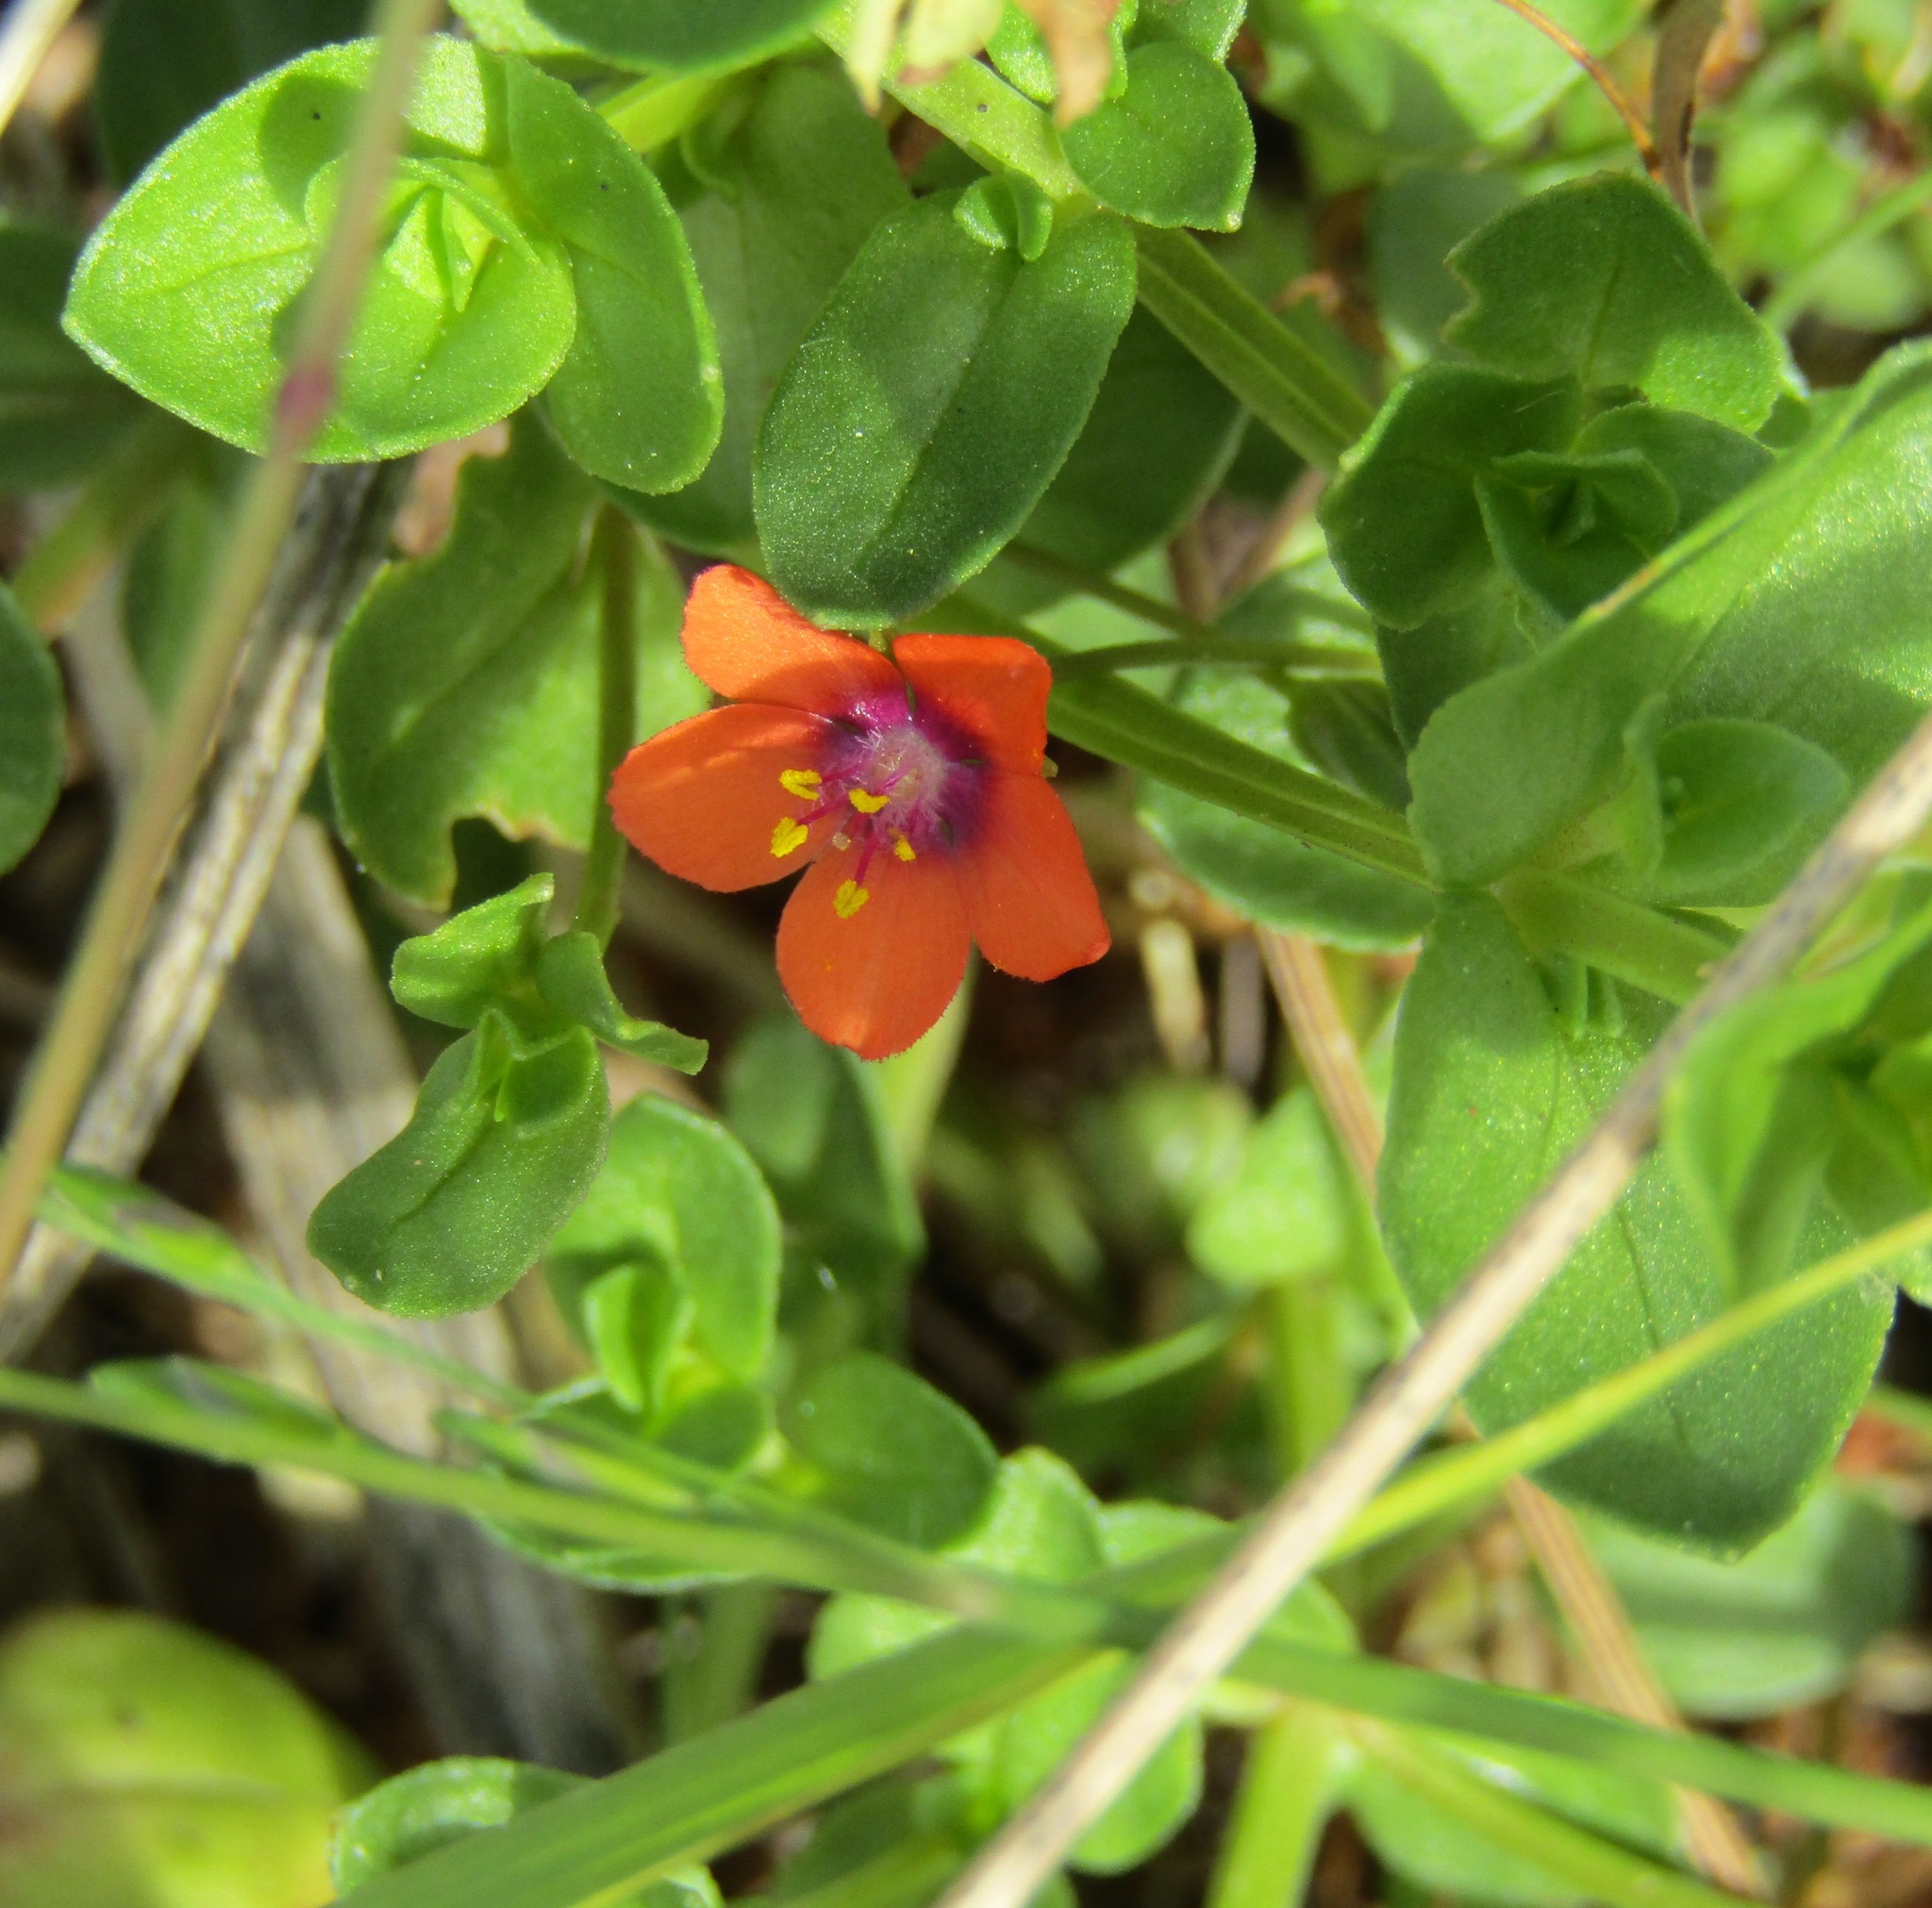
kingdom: Plantae
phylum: Tracheophyta
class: Magnoliopsida
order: Ericales
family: Primulaceae
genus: Lysimachia
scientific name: Lysimachia arvensis
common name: Scarlet pimpernel
